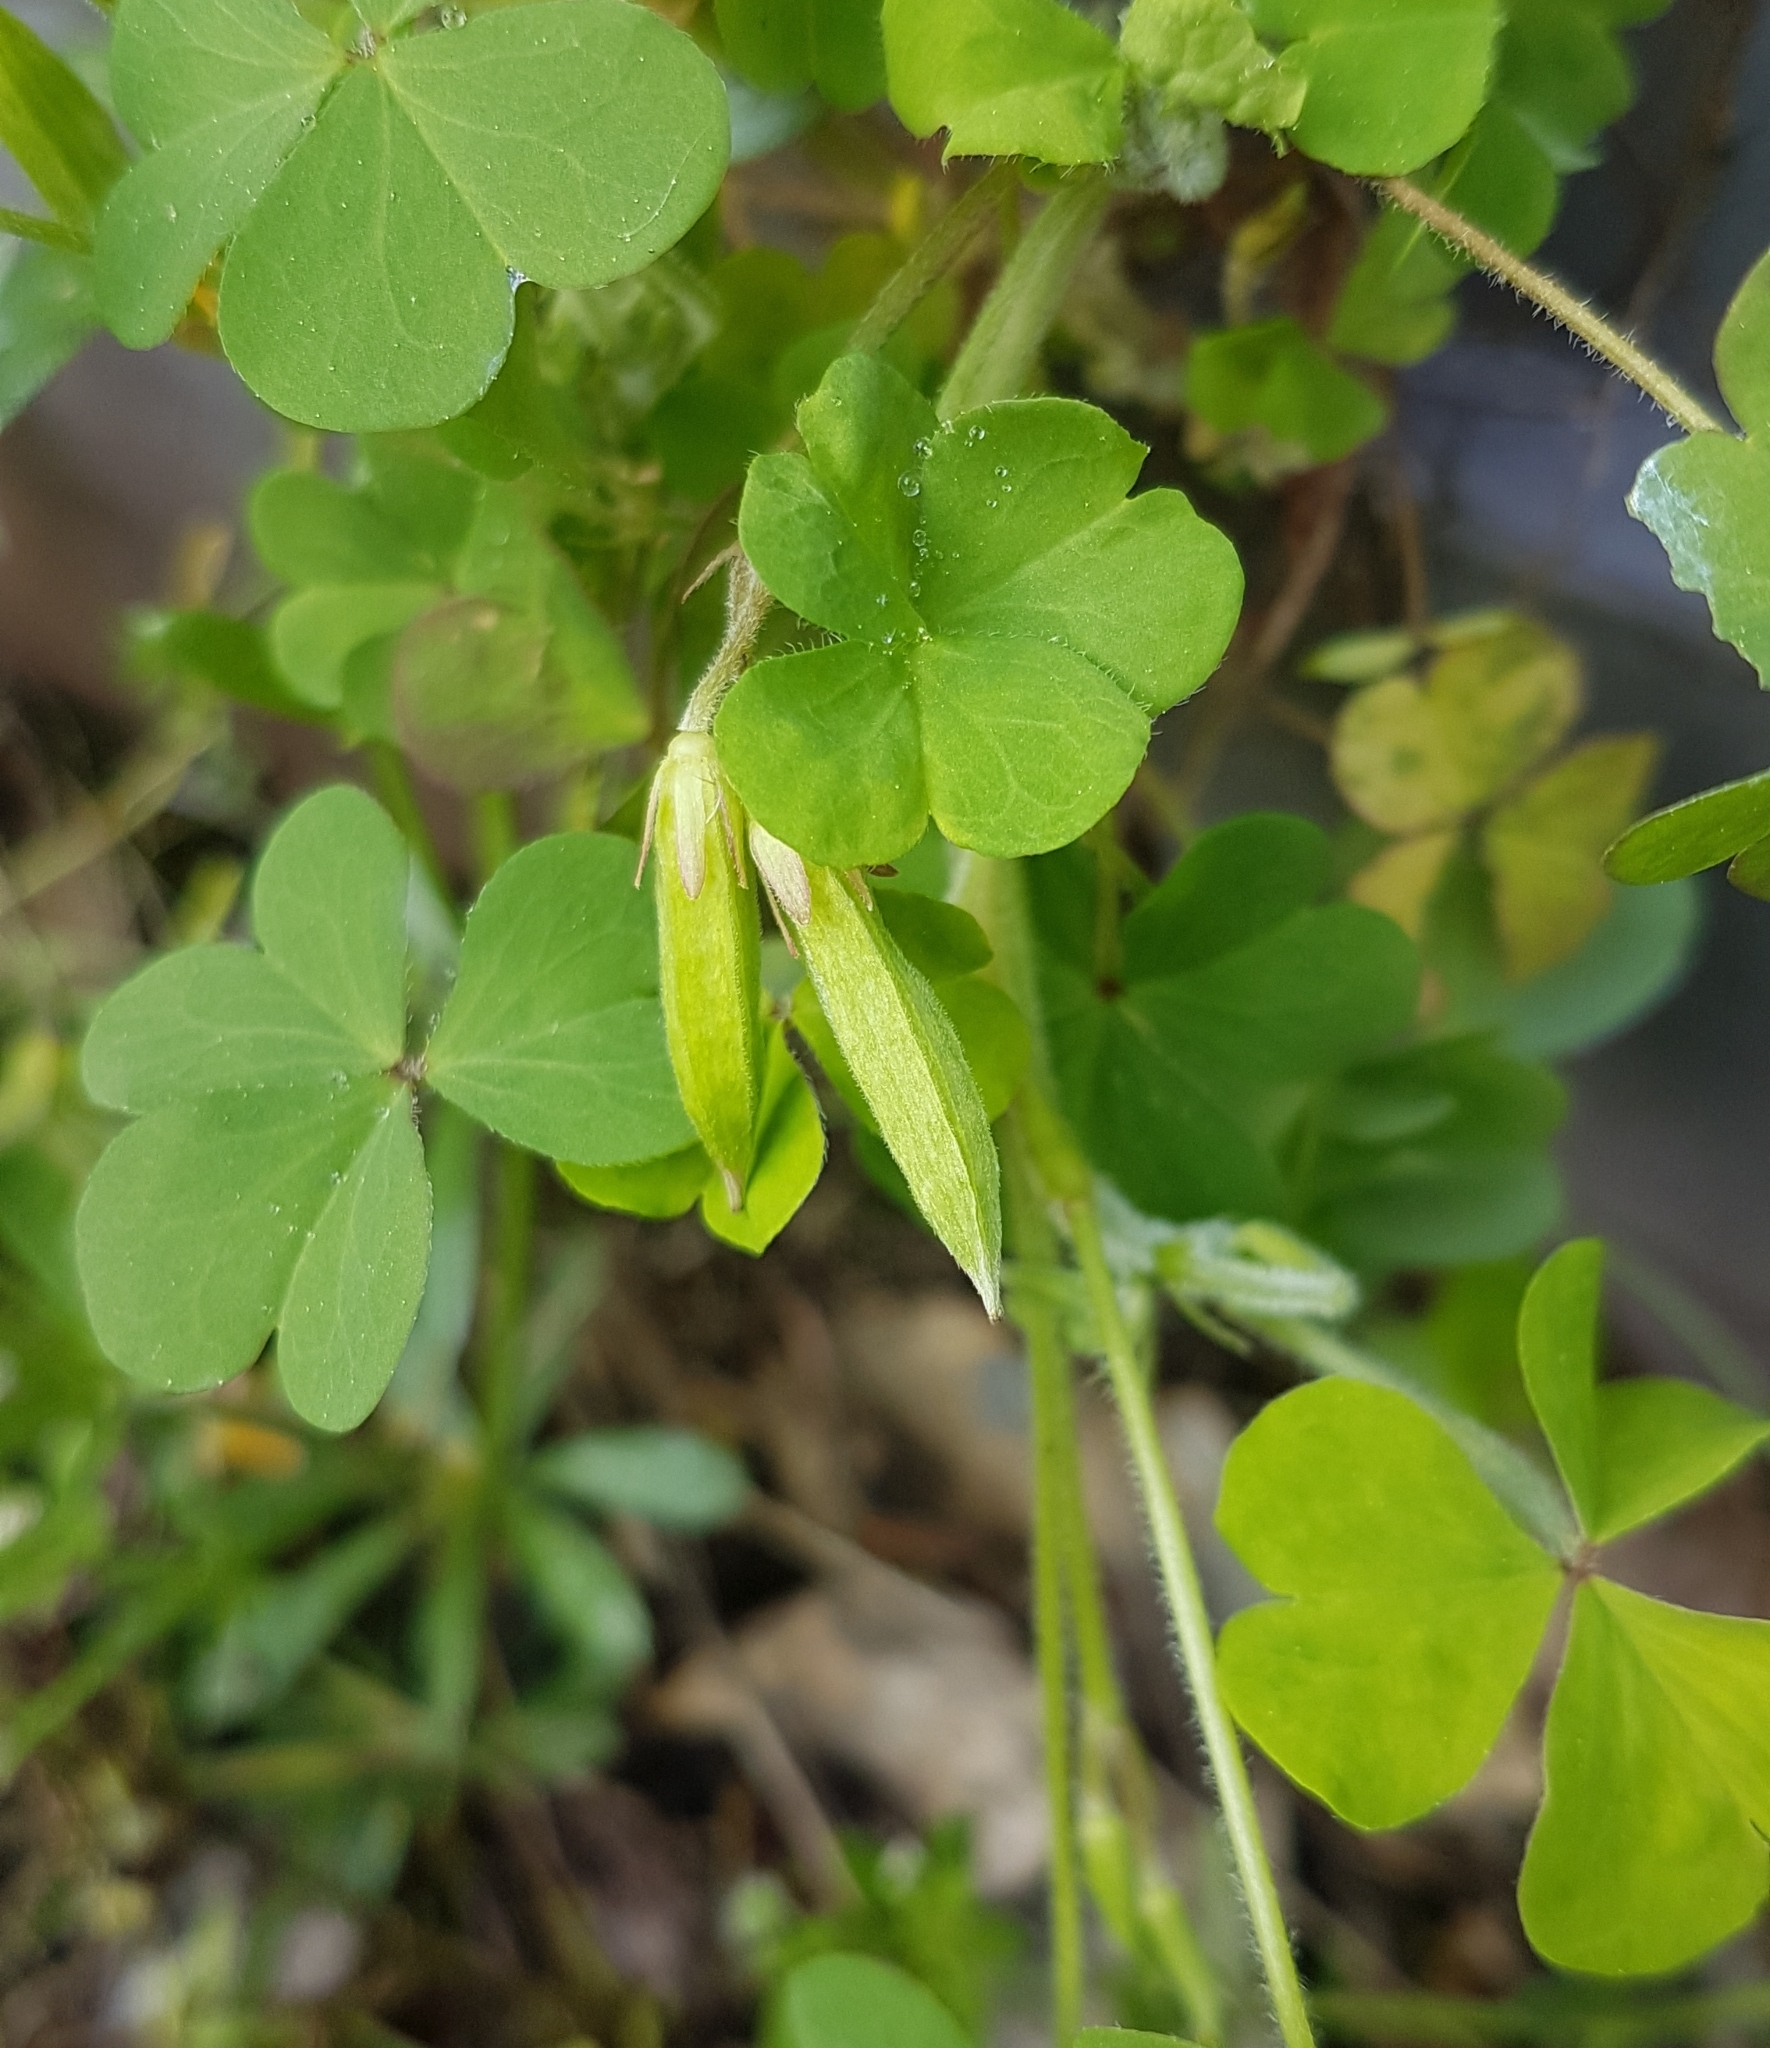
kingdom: Plantae
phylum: Tracheophyta
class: Magnoliopsida
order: Oxalidales
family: Oxalidaceae
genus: Oxalis
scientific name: Oxalis corniculata
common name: Procumbent yellow-sorrel
